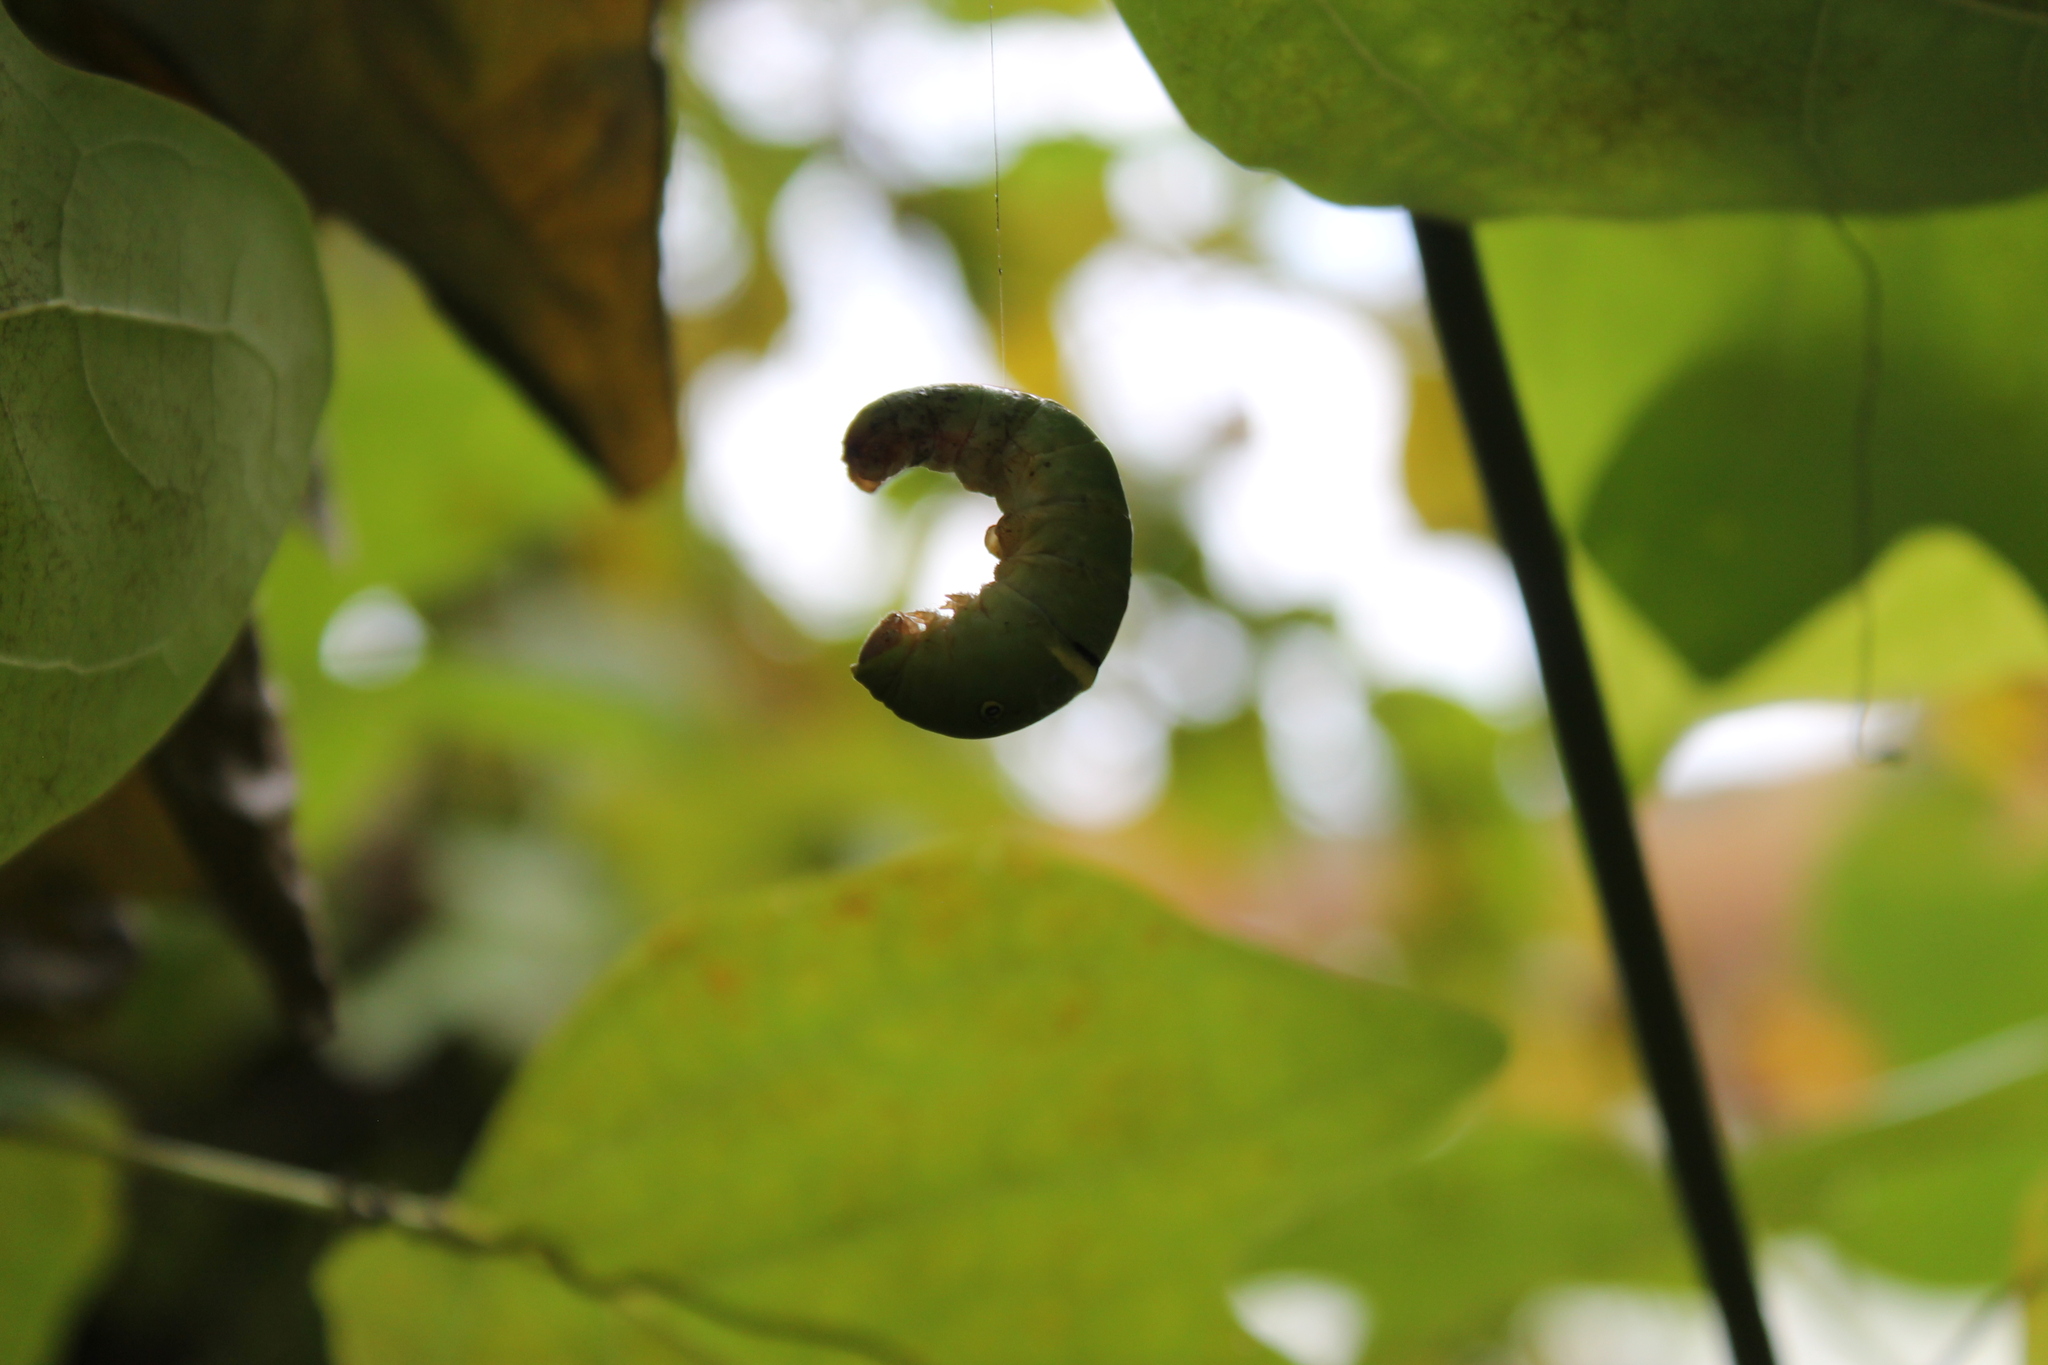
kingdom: Animalia
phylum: Arthropoda
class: Insecta
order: Lepidoptera
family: Papilionidae
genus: Papilio
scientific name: Papilio glaucus
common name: Tiger swallowtail
